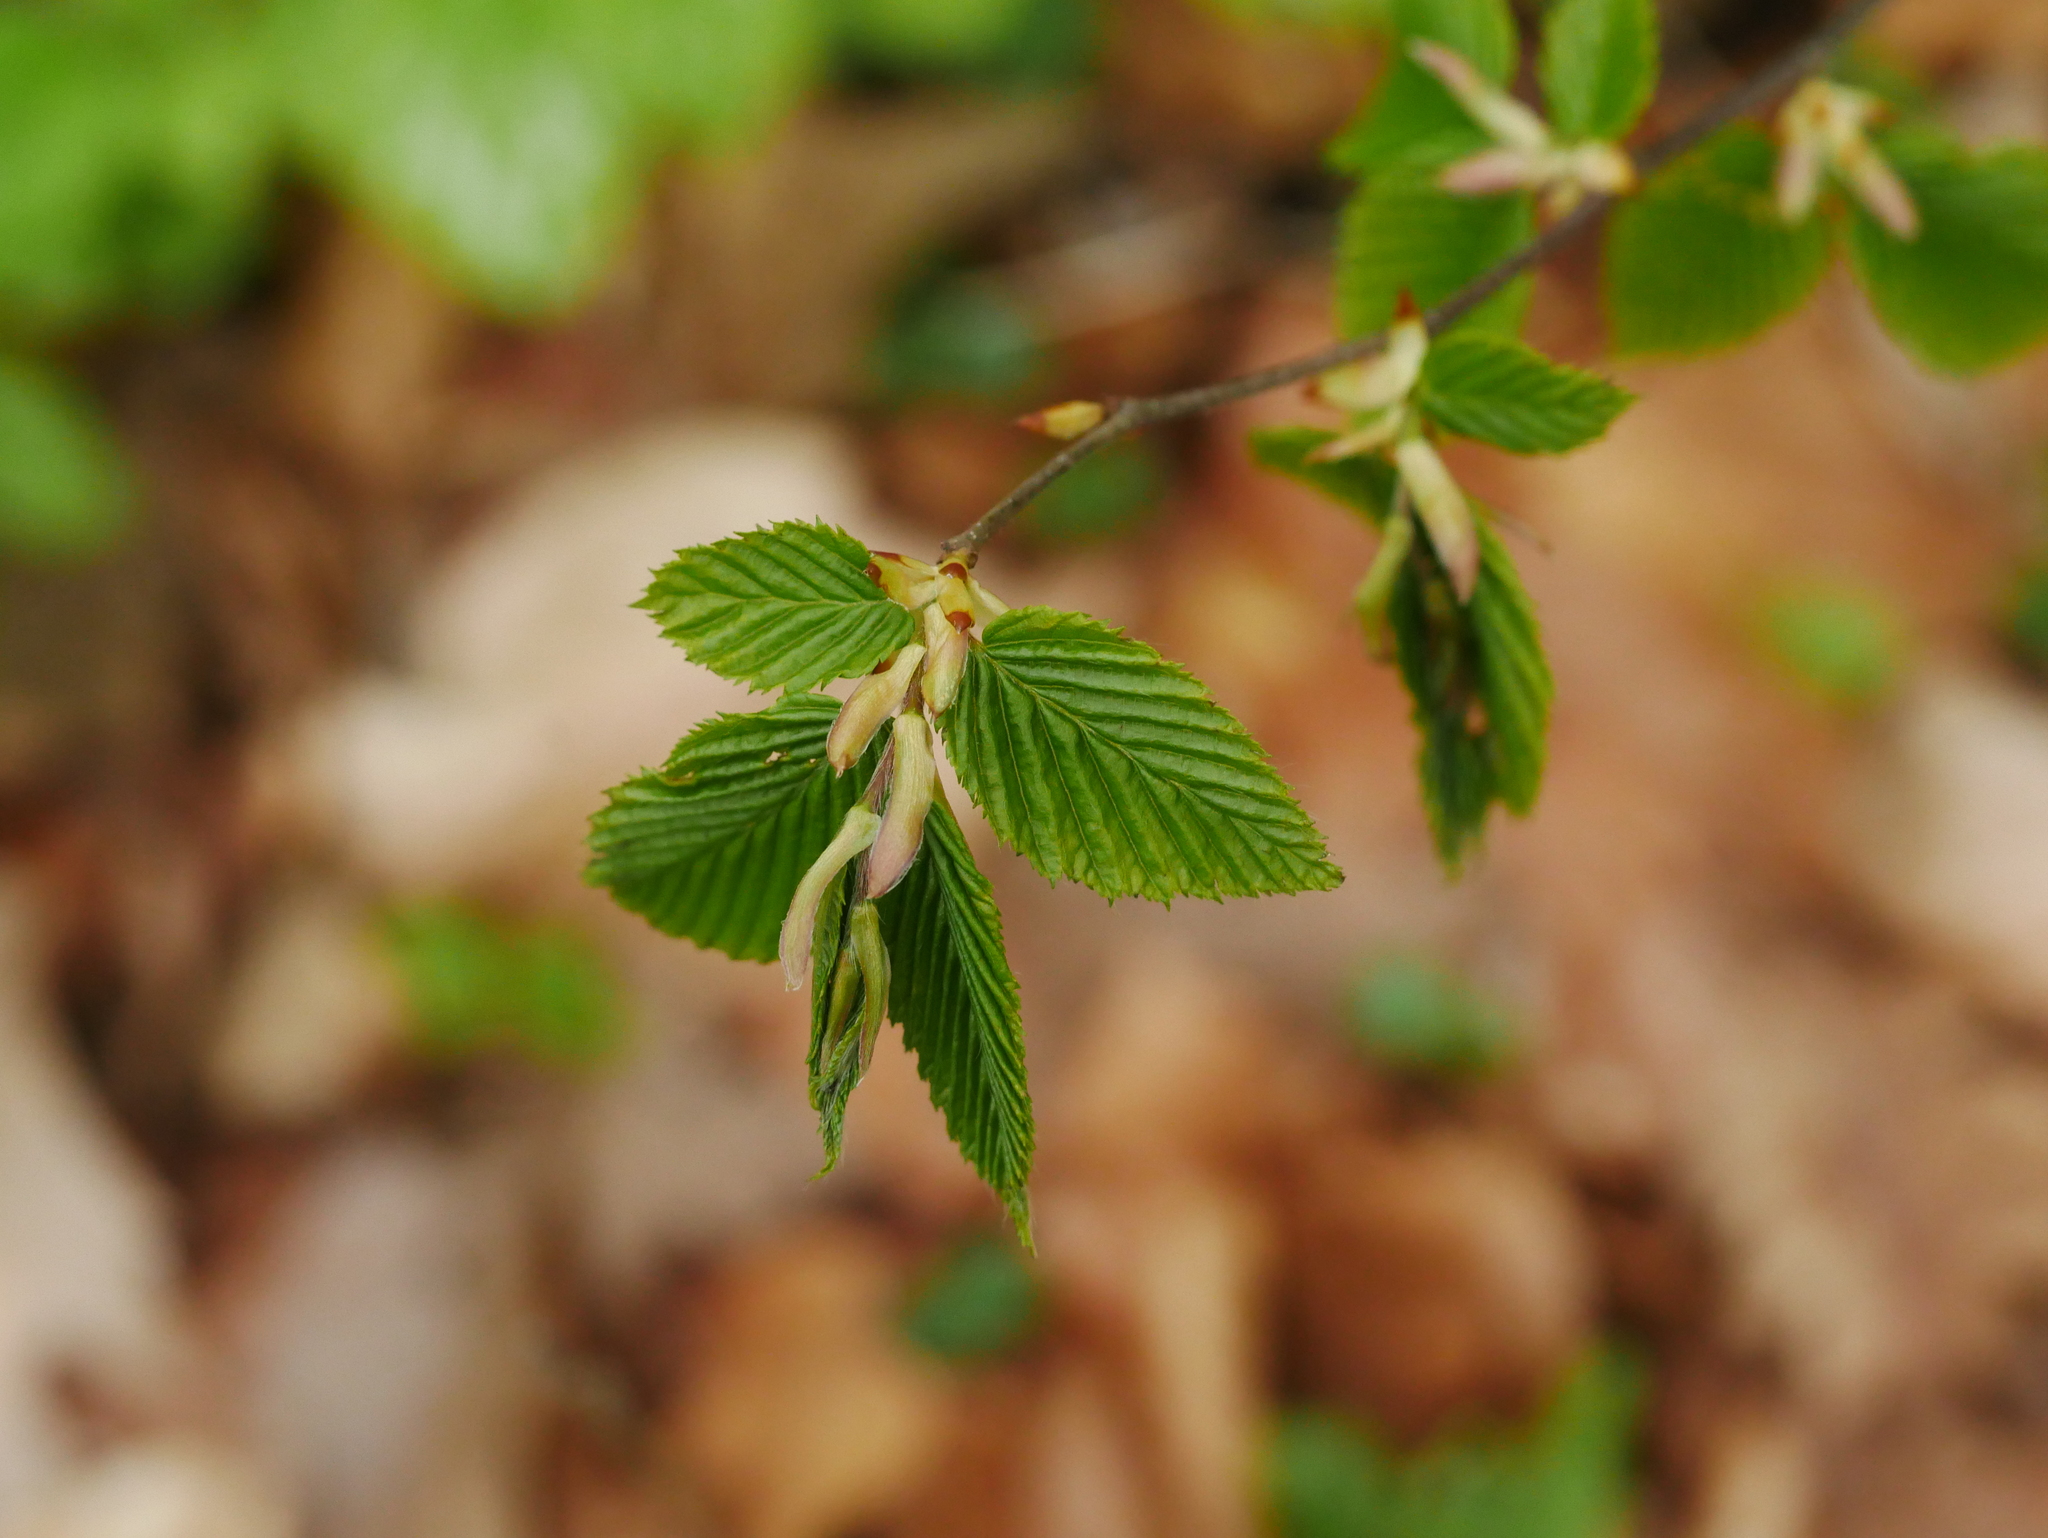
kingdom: Plantae
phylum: Tracheophyta
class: Magnoliopsida
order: Fagales
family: Betulaceae
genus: Carpinus
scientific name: Carpinus betulus
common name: Hornbeam
